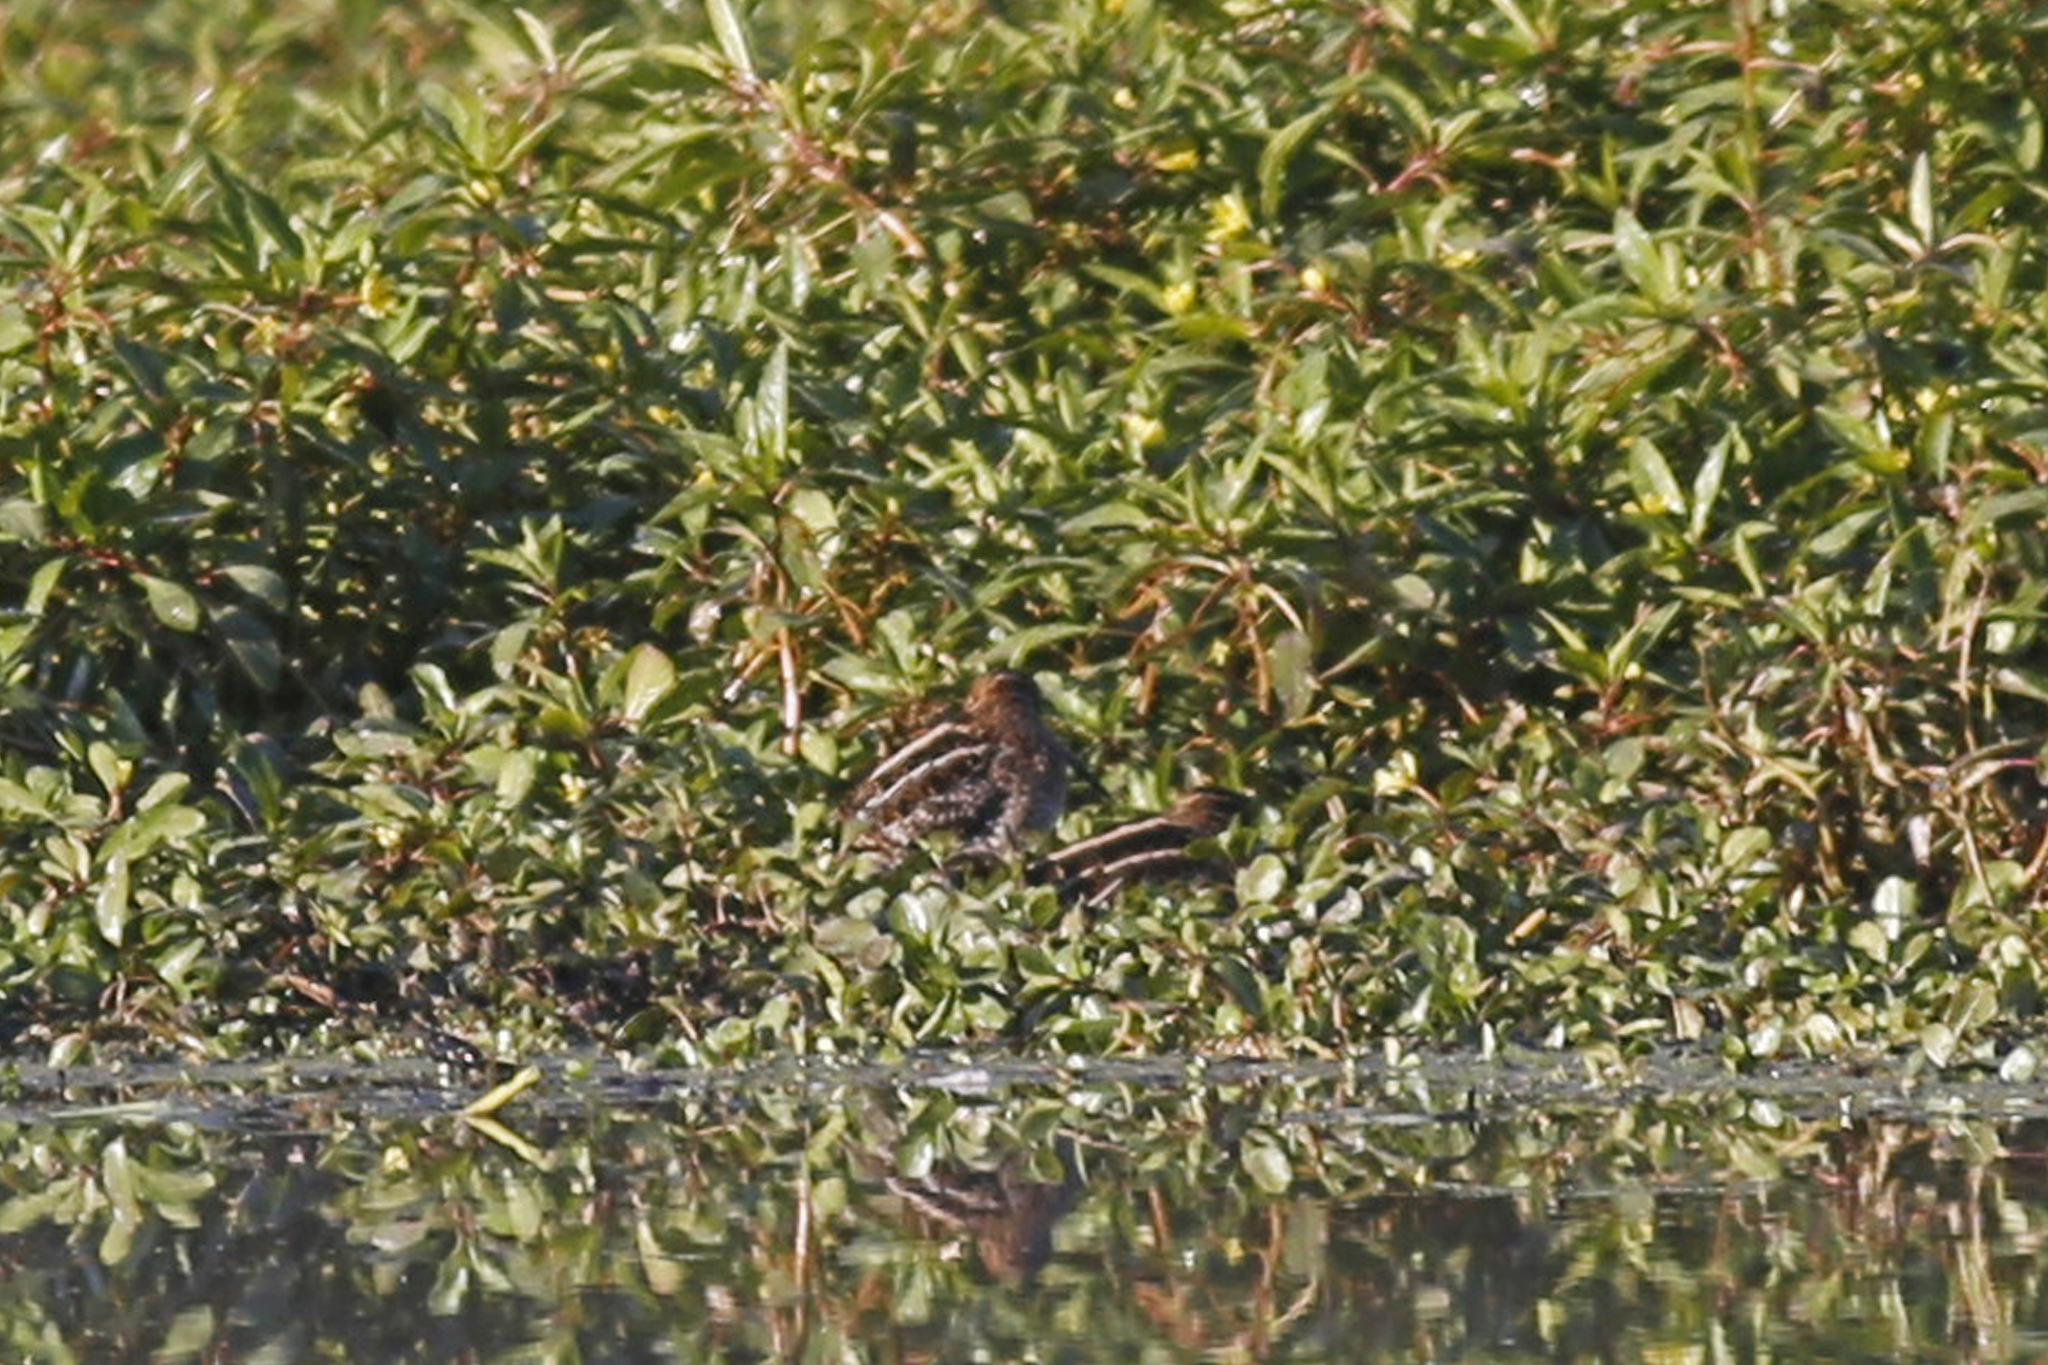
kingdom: Animalia
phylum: Chordata
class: Aves
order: Charadriiformes
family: Scolopacidae
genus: Gallinago
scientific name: Gallinago delicata
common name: Wilson's snipe
